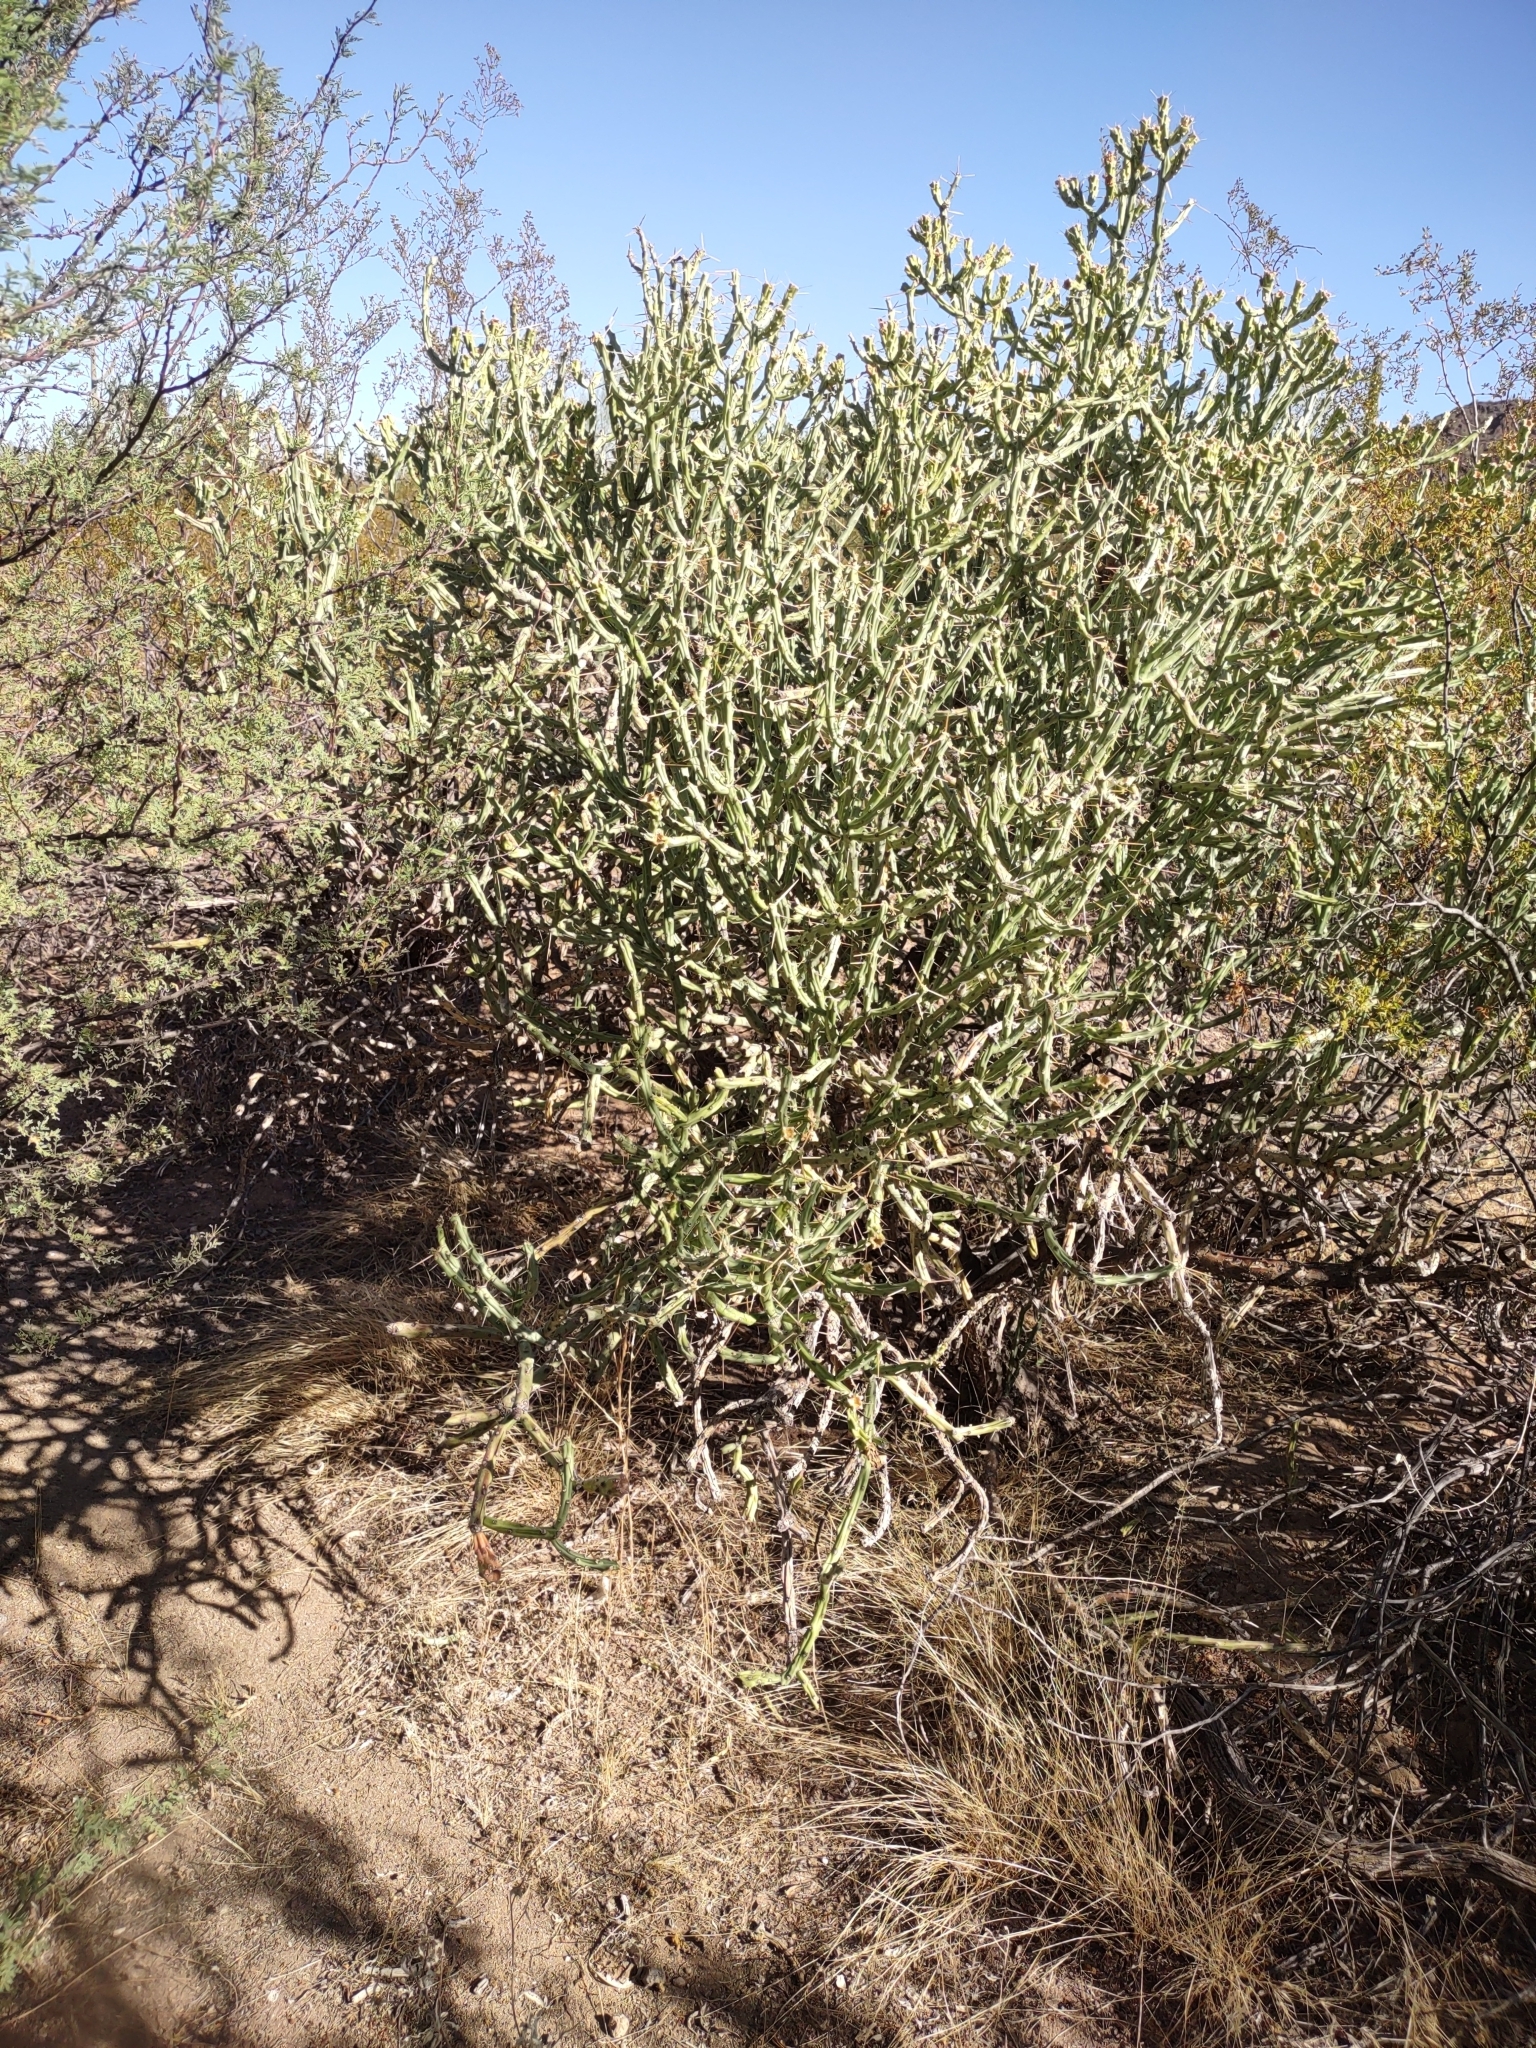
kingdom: Plantae
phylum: Tracheophyta
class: Magnoliopsida
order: Caryophyllales
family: Cactaceae
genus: Cylindropuntia
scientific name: Cylindropuntia arbuscula
